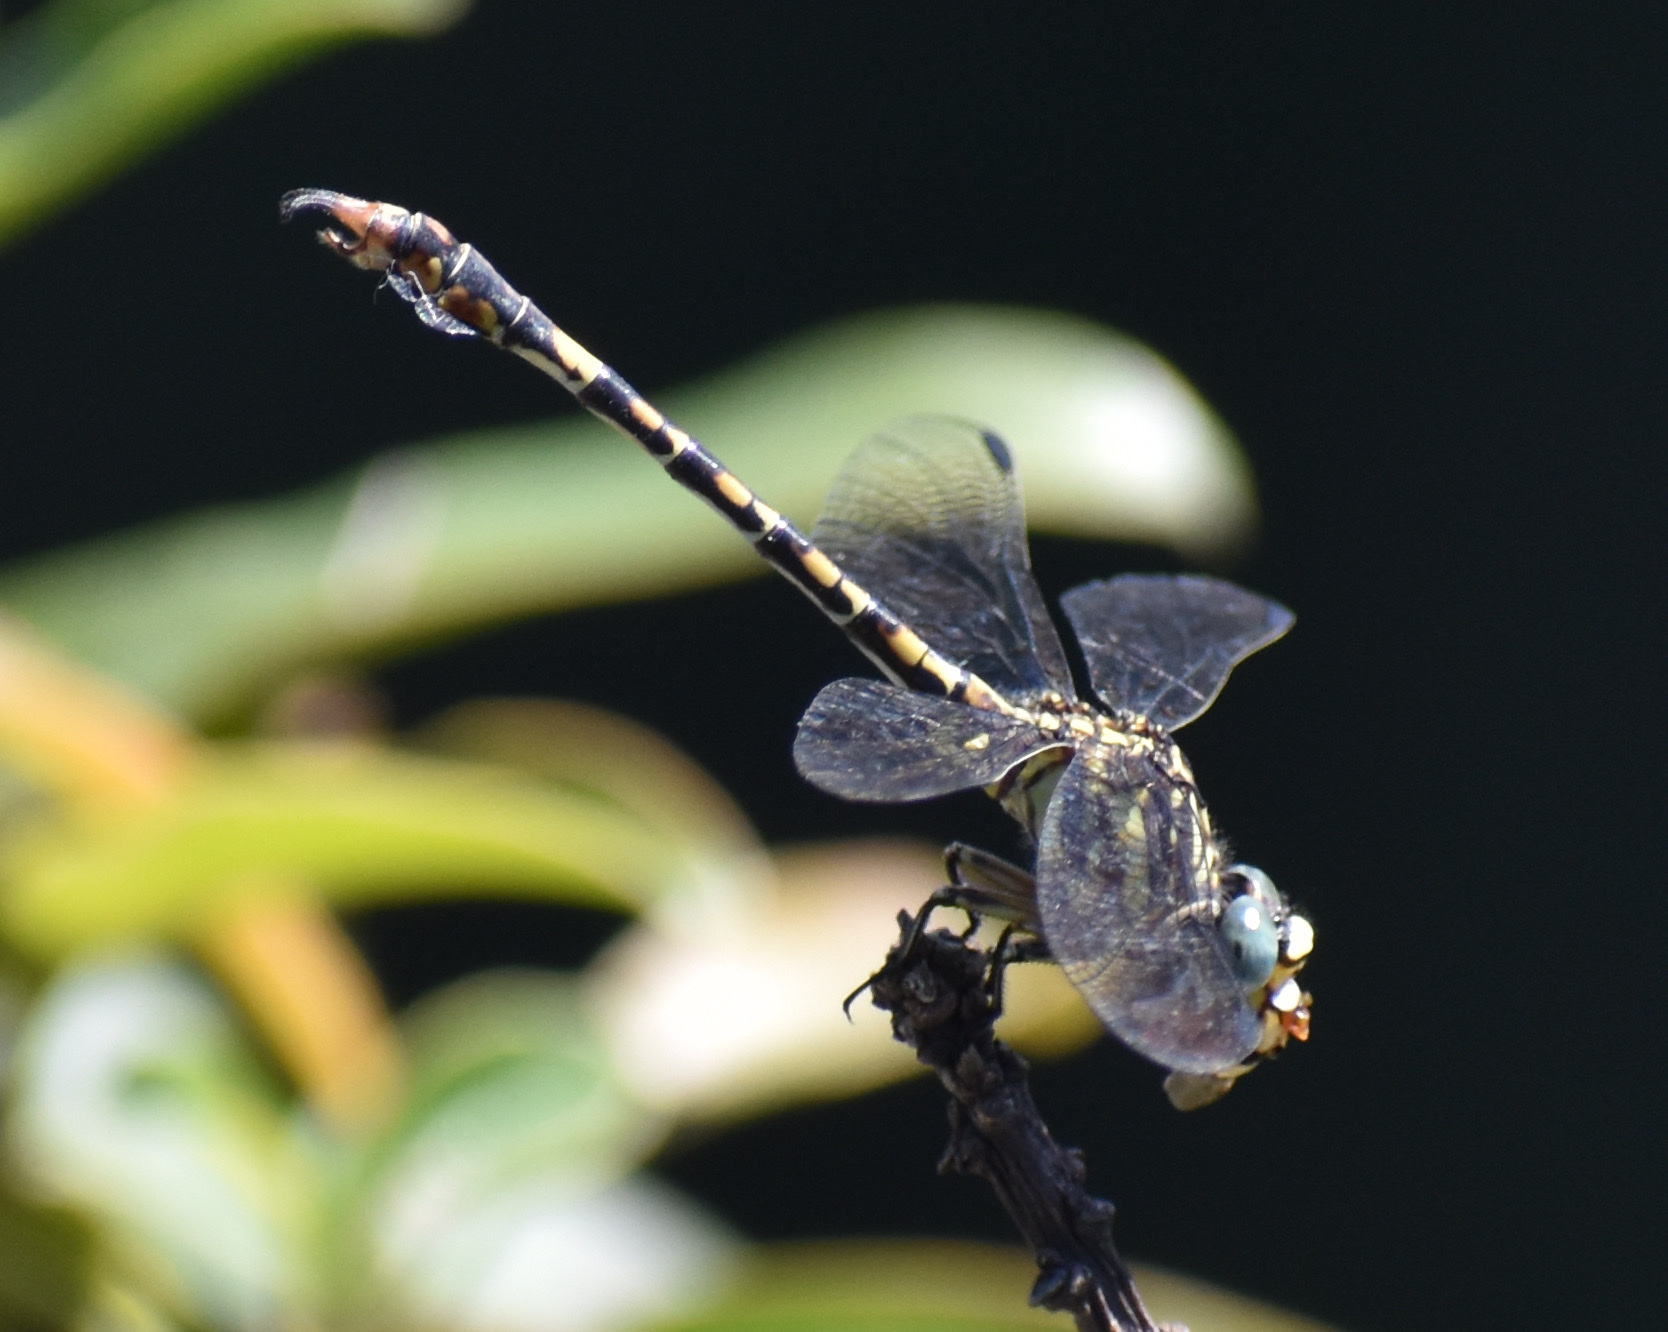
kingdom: Animalia
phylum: Arthropoda
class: Insecta
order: Odonata
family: Gomphidae
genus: Paragomphus
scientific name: Paragomphus cognatus
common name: Boulder hooktail
